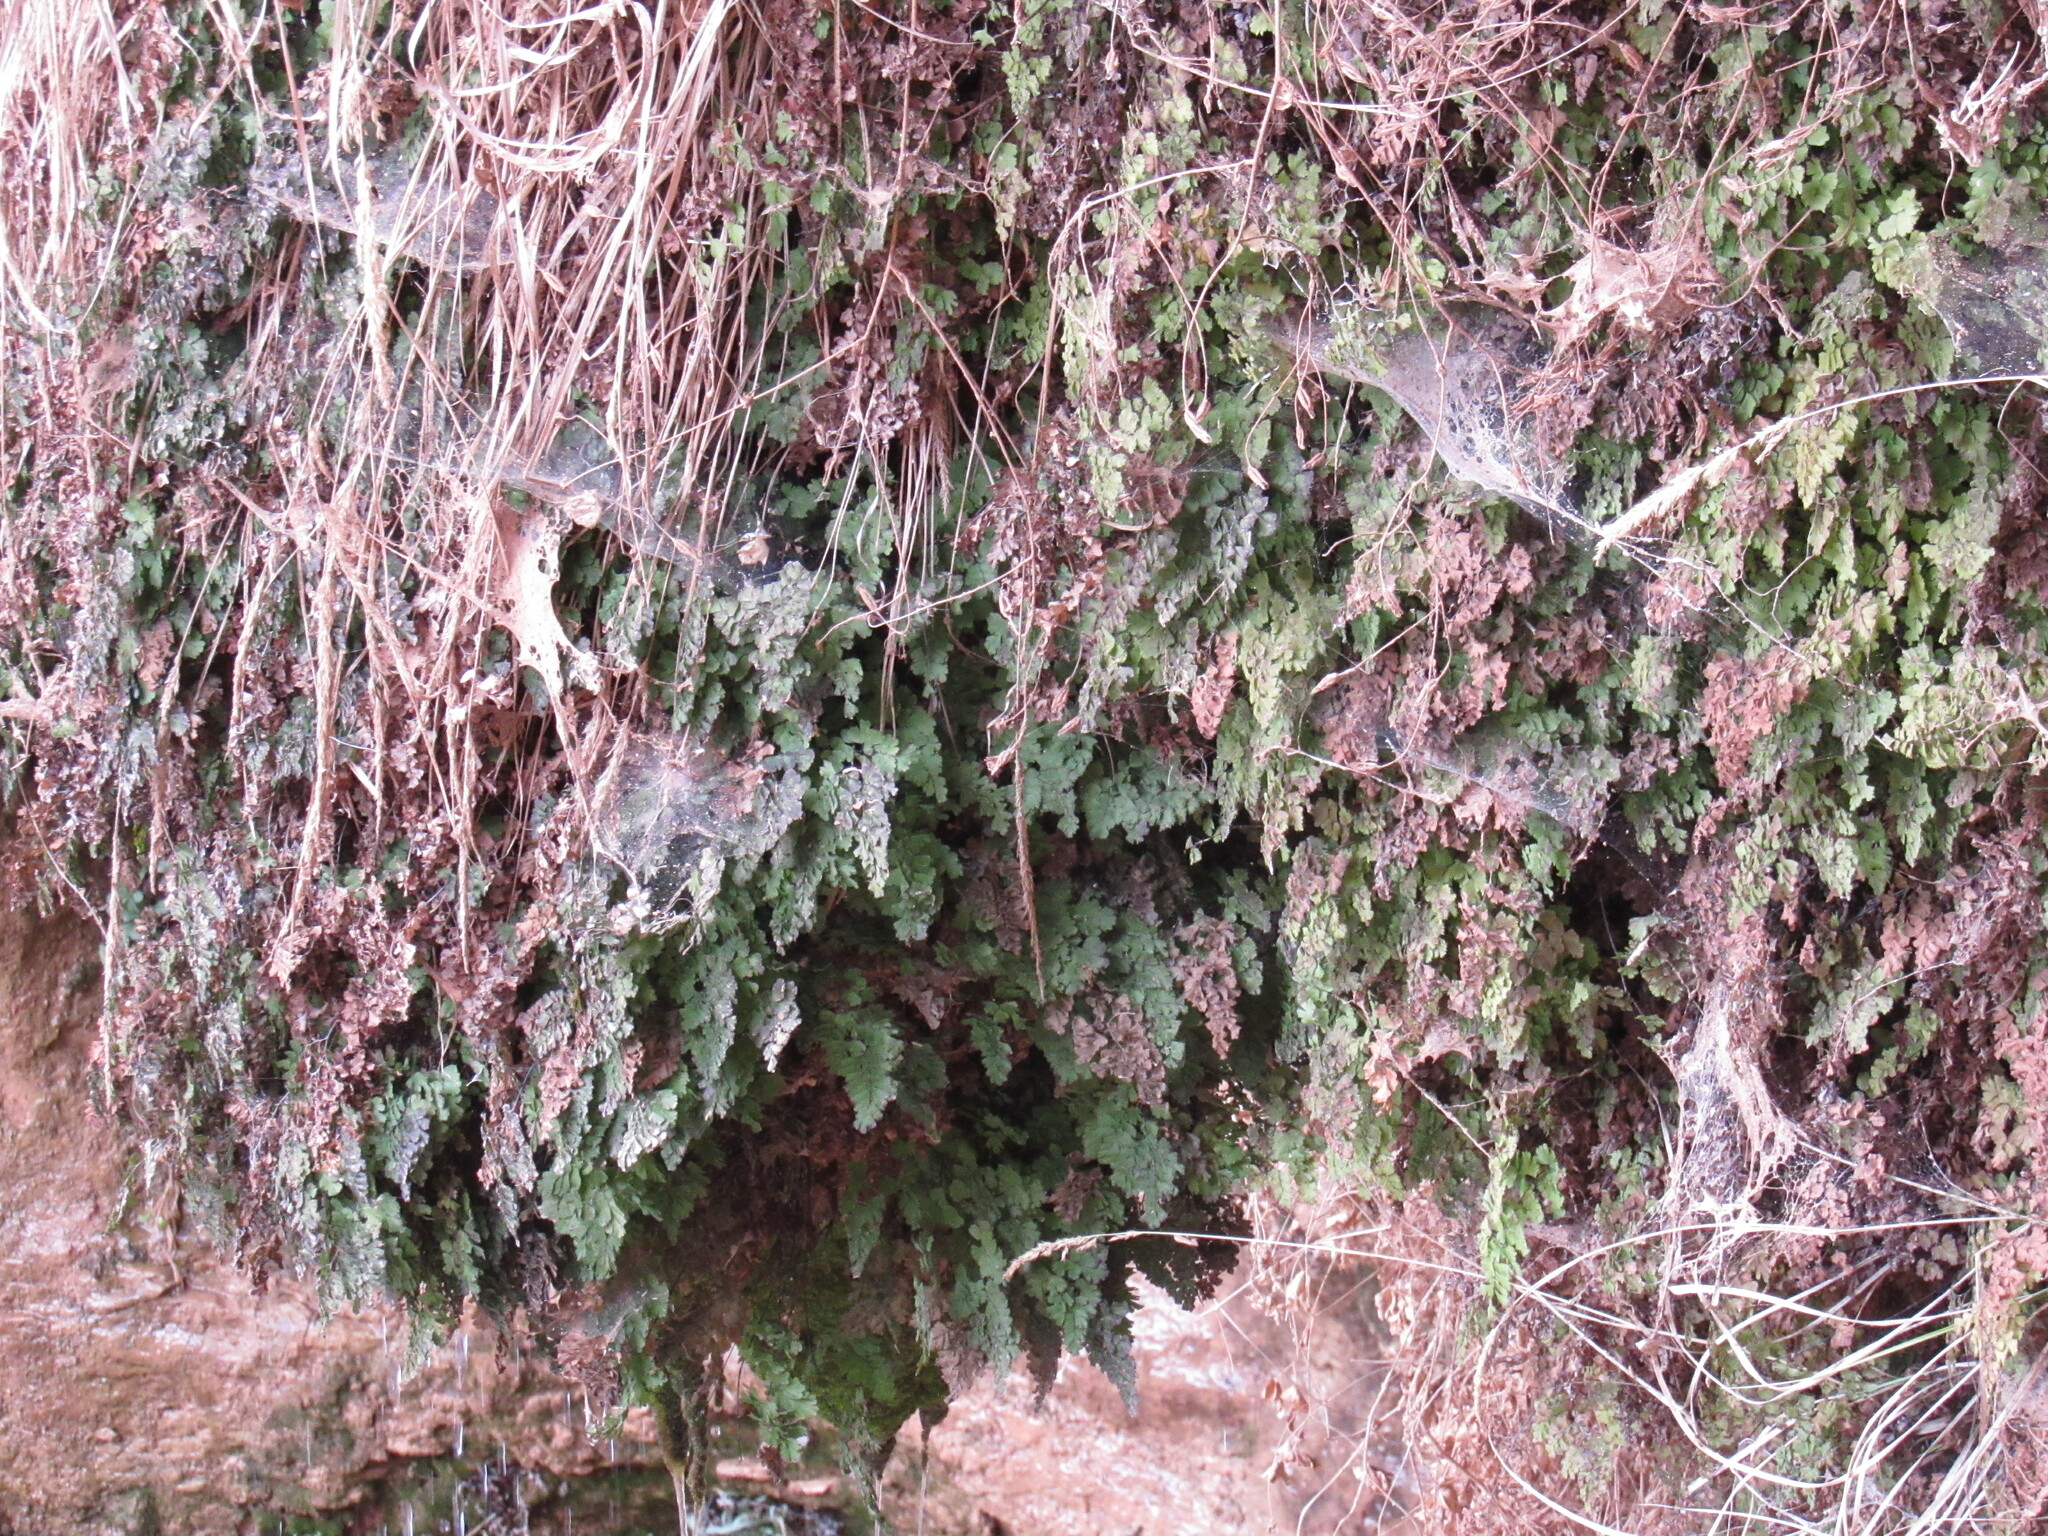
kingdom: Plantae
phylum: Tracheophyta
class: Polypodiopsida
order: Polypodiales
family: Pteridaceae
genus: Adiantum
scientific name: Adiantum capillus-veneris
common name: Maidenhair fern
